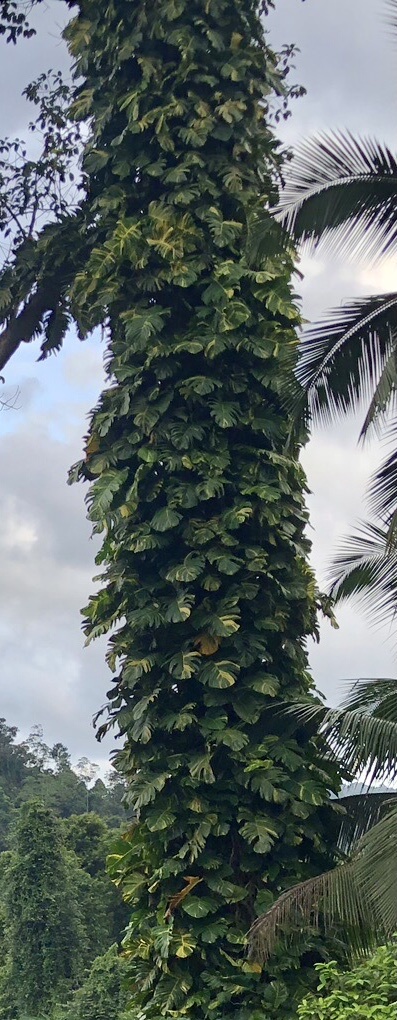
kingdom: Plantae
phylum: Tracheophyta
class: Liliopsida
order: Alismatales
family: Araceae
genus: Epipremnum
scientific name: Epipremnum aureum
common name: Golden hunter's-robe
